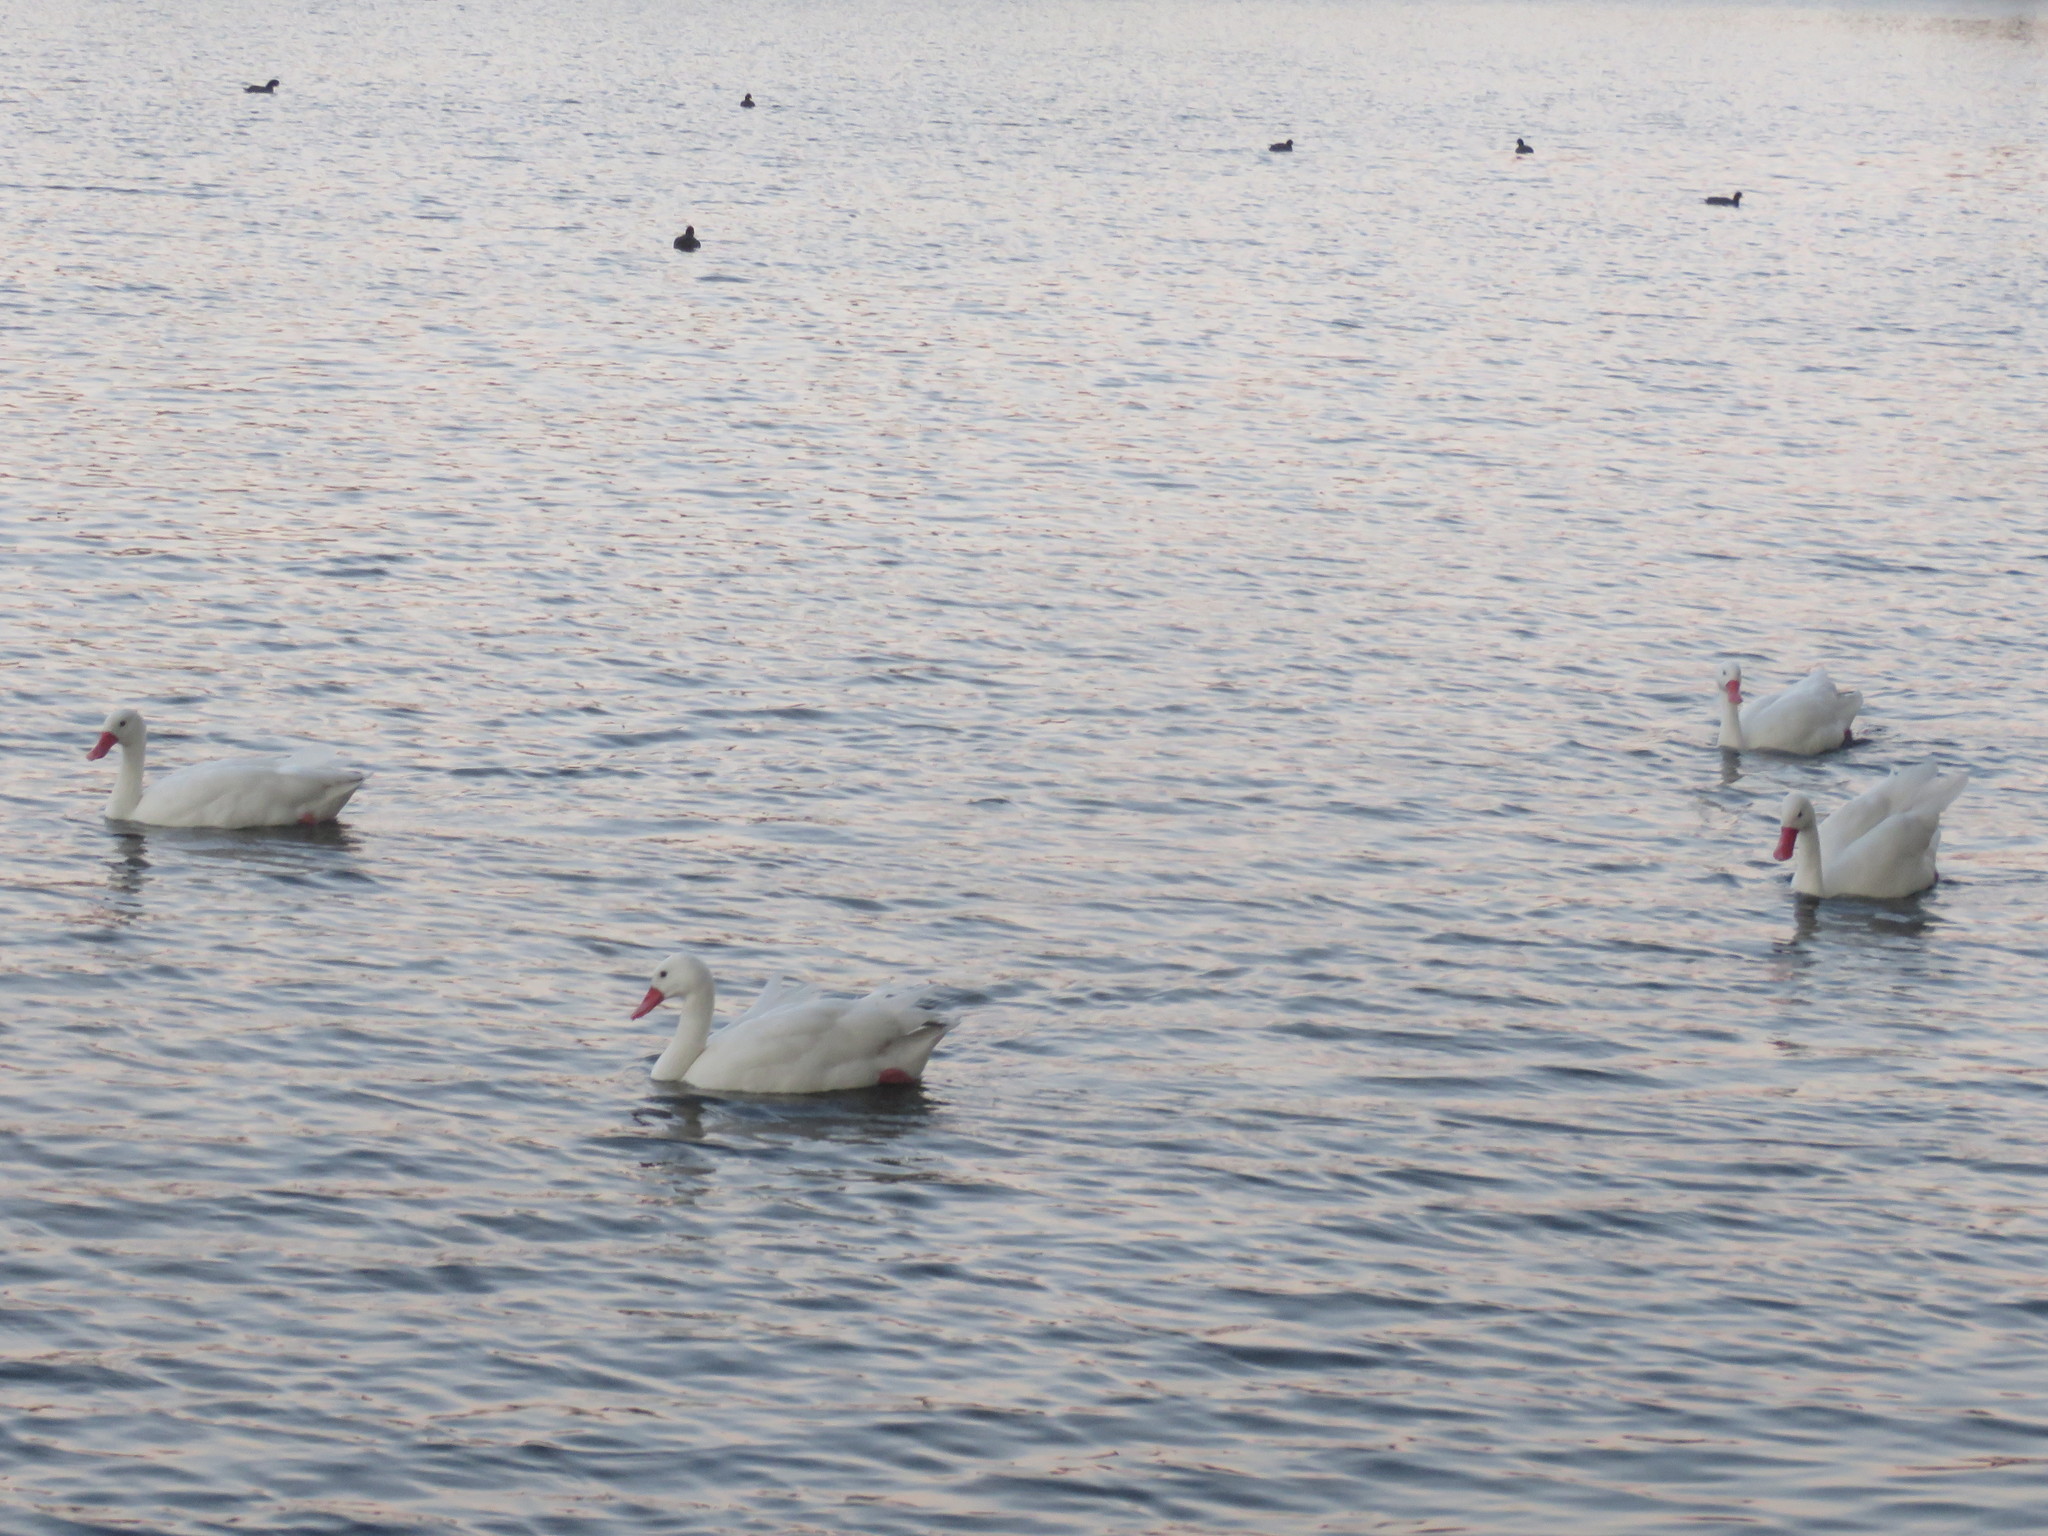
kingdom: Animalia
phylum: Chordata
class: Aves
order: Anseriformes
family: Anatidae
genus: Coscoroba
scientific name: Coscoroba coscoroba
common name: Coscoroba swan
